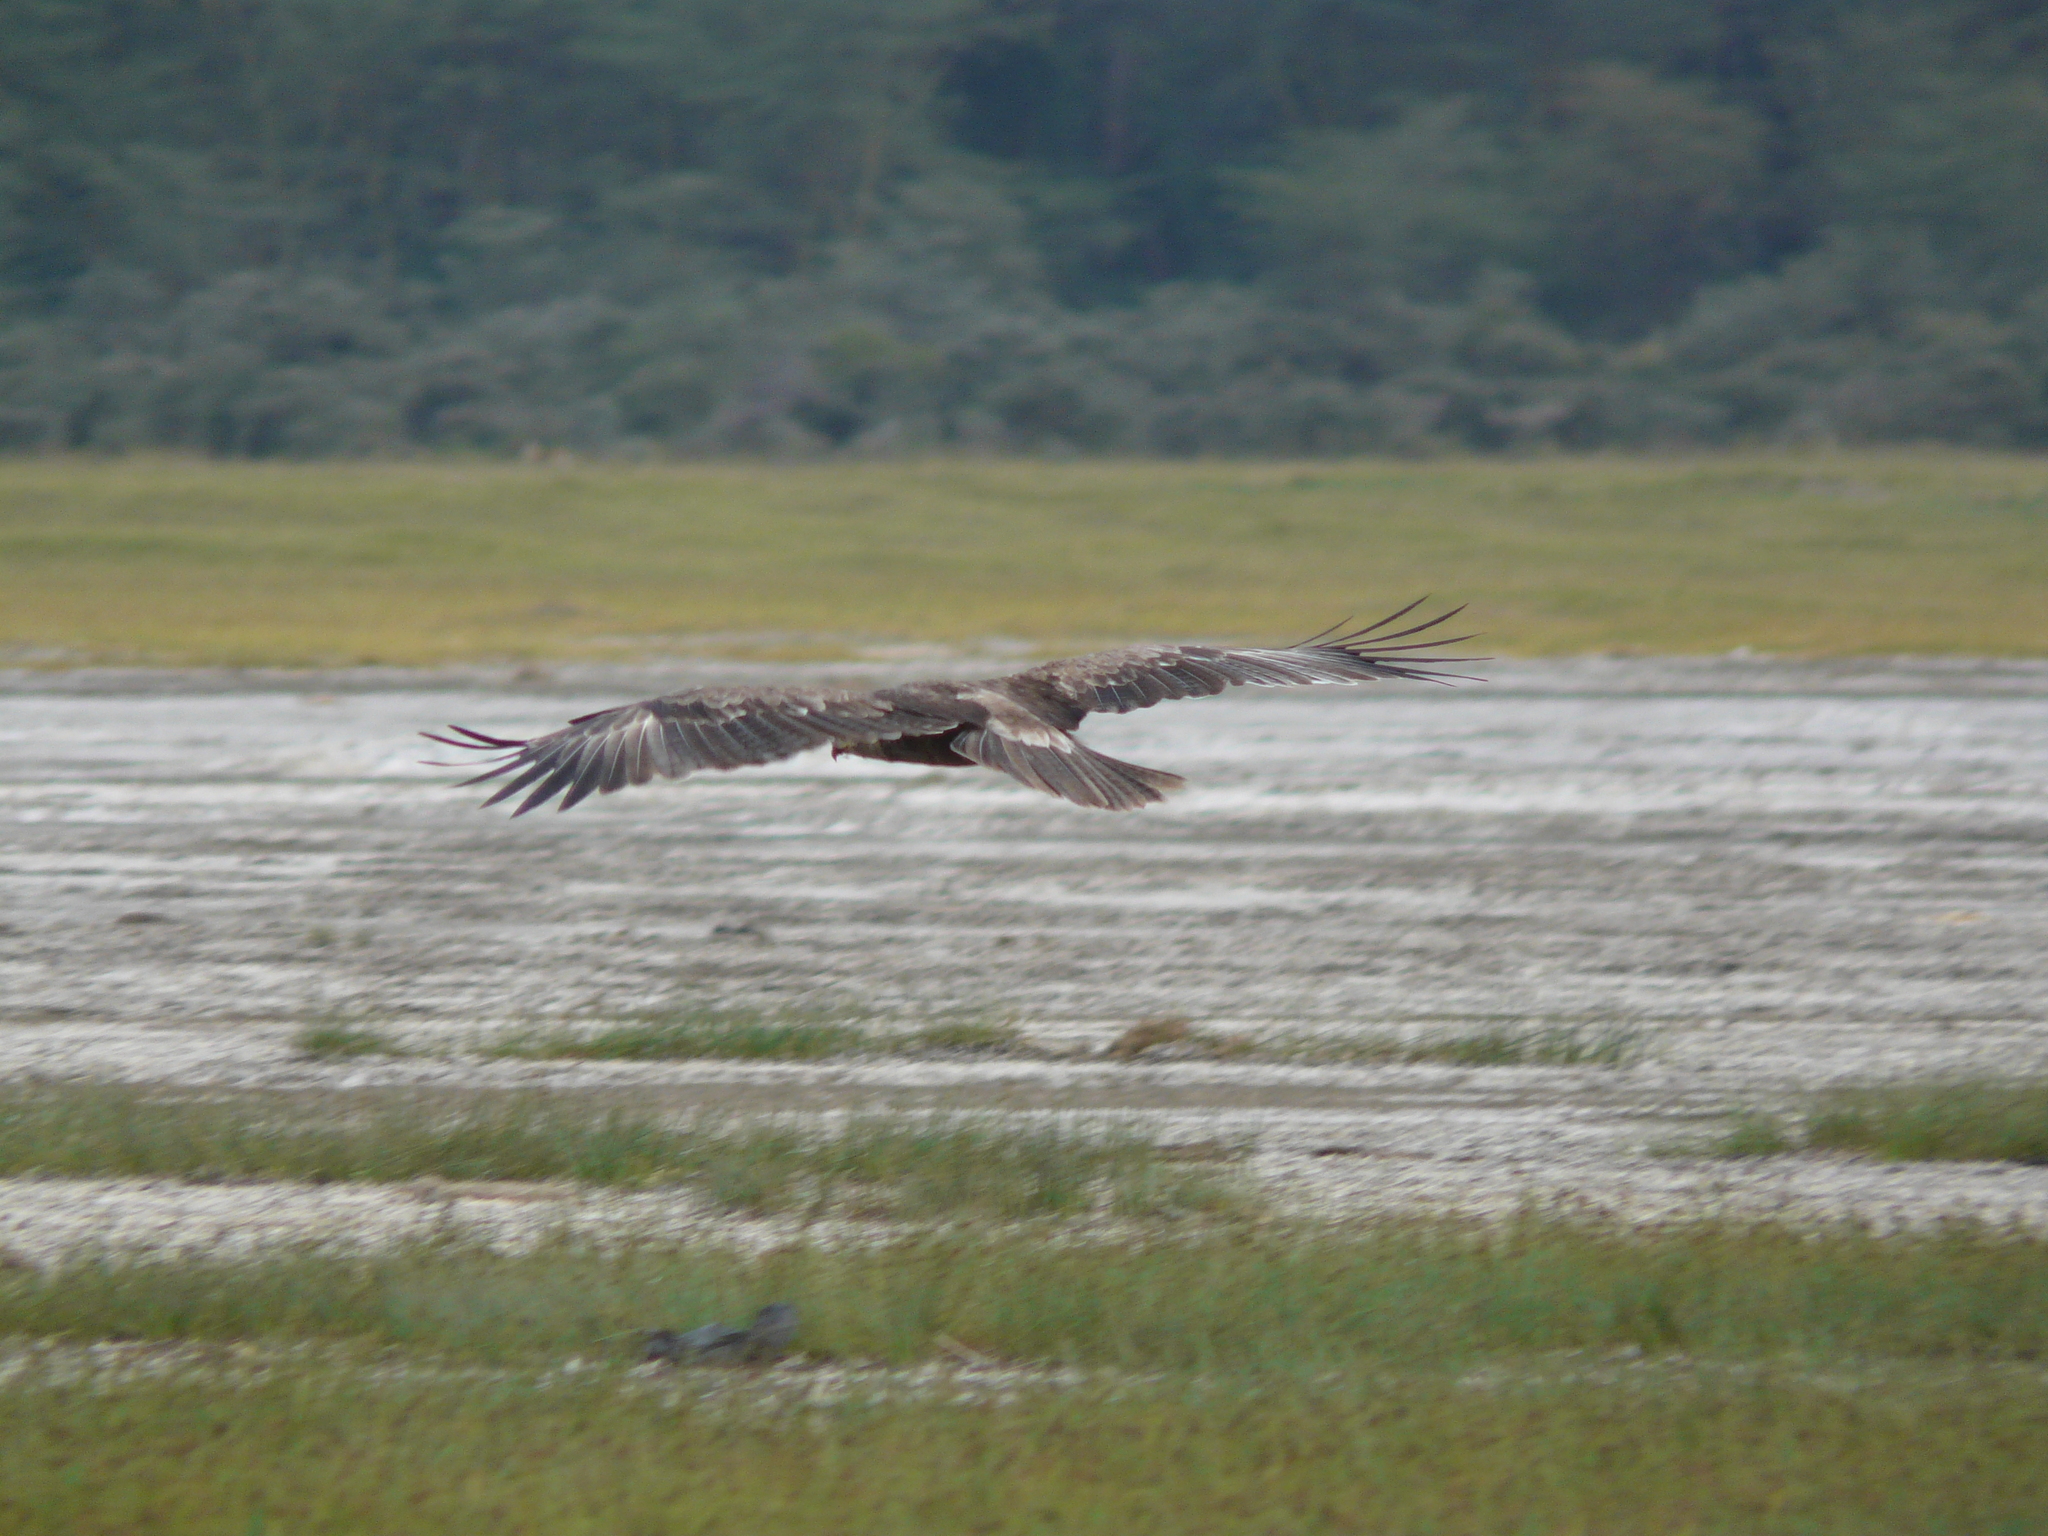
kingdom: Animalia
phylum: Chordata
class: Aves
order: Accipitriformes
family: Accipitridae
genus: Aquila
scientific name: Aquila rapax
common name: Tawny eagle
